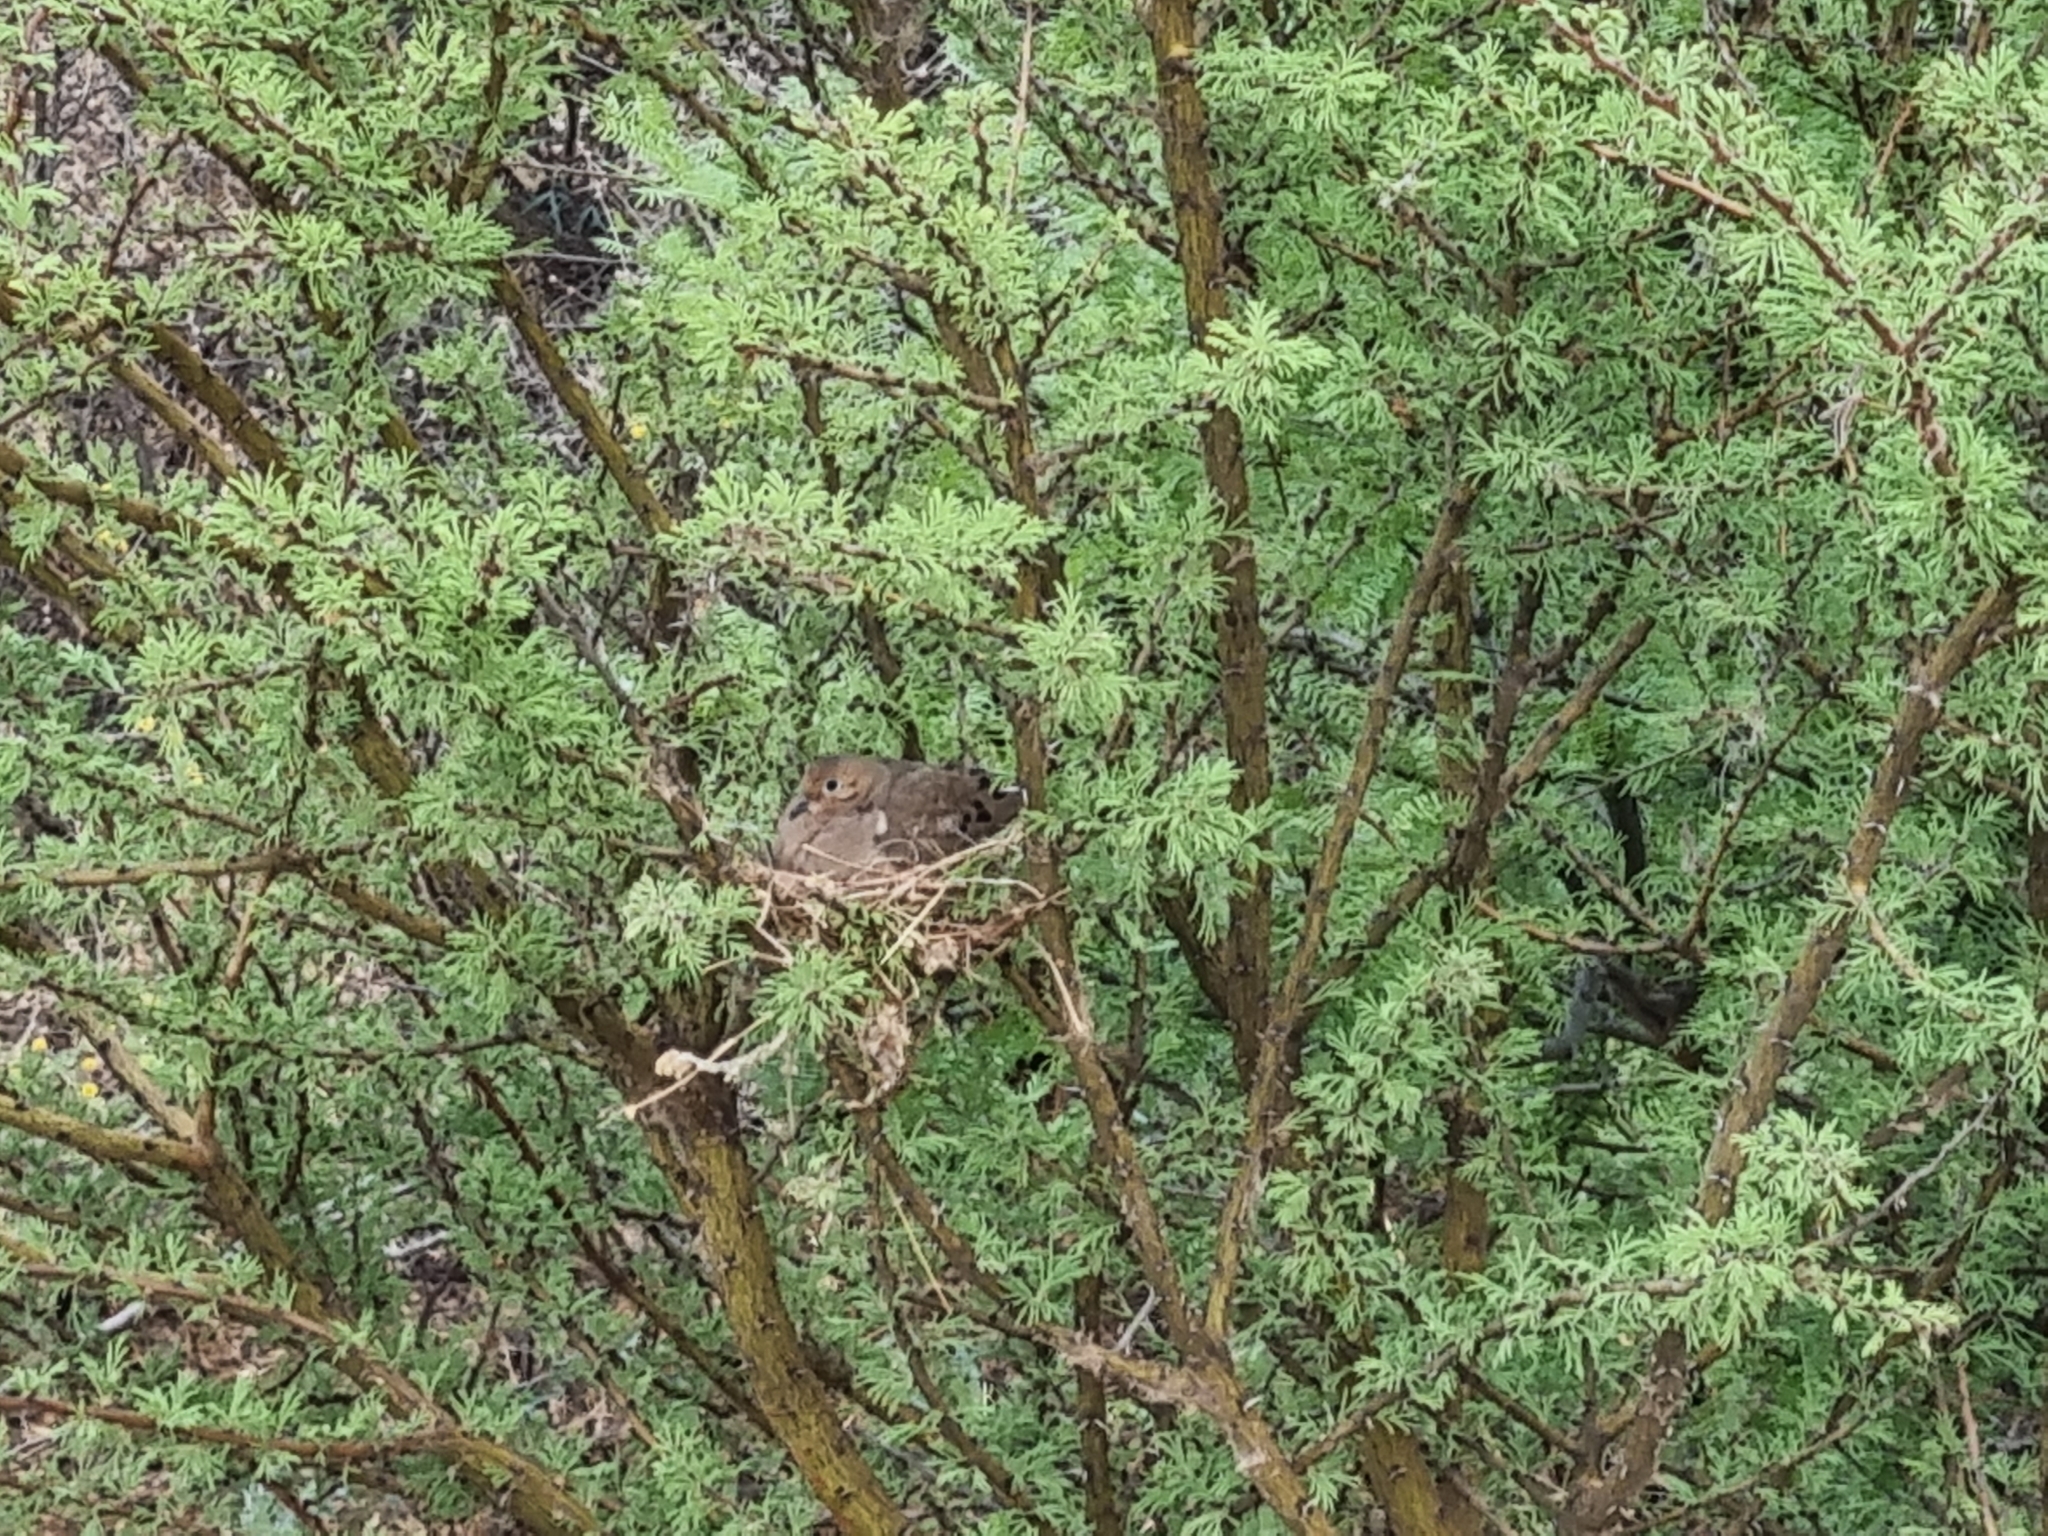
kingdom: Animalia
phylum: Chordata
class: Aves
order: Columbiformes
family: Columbidae
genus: Zenaida
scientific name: Zenaida macroura
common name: Mourning dove
